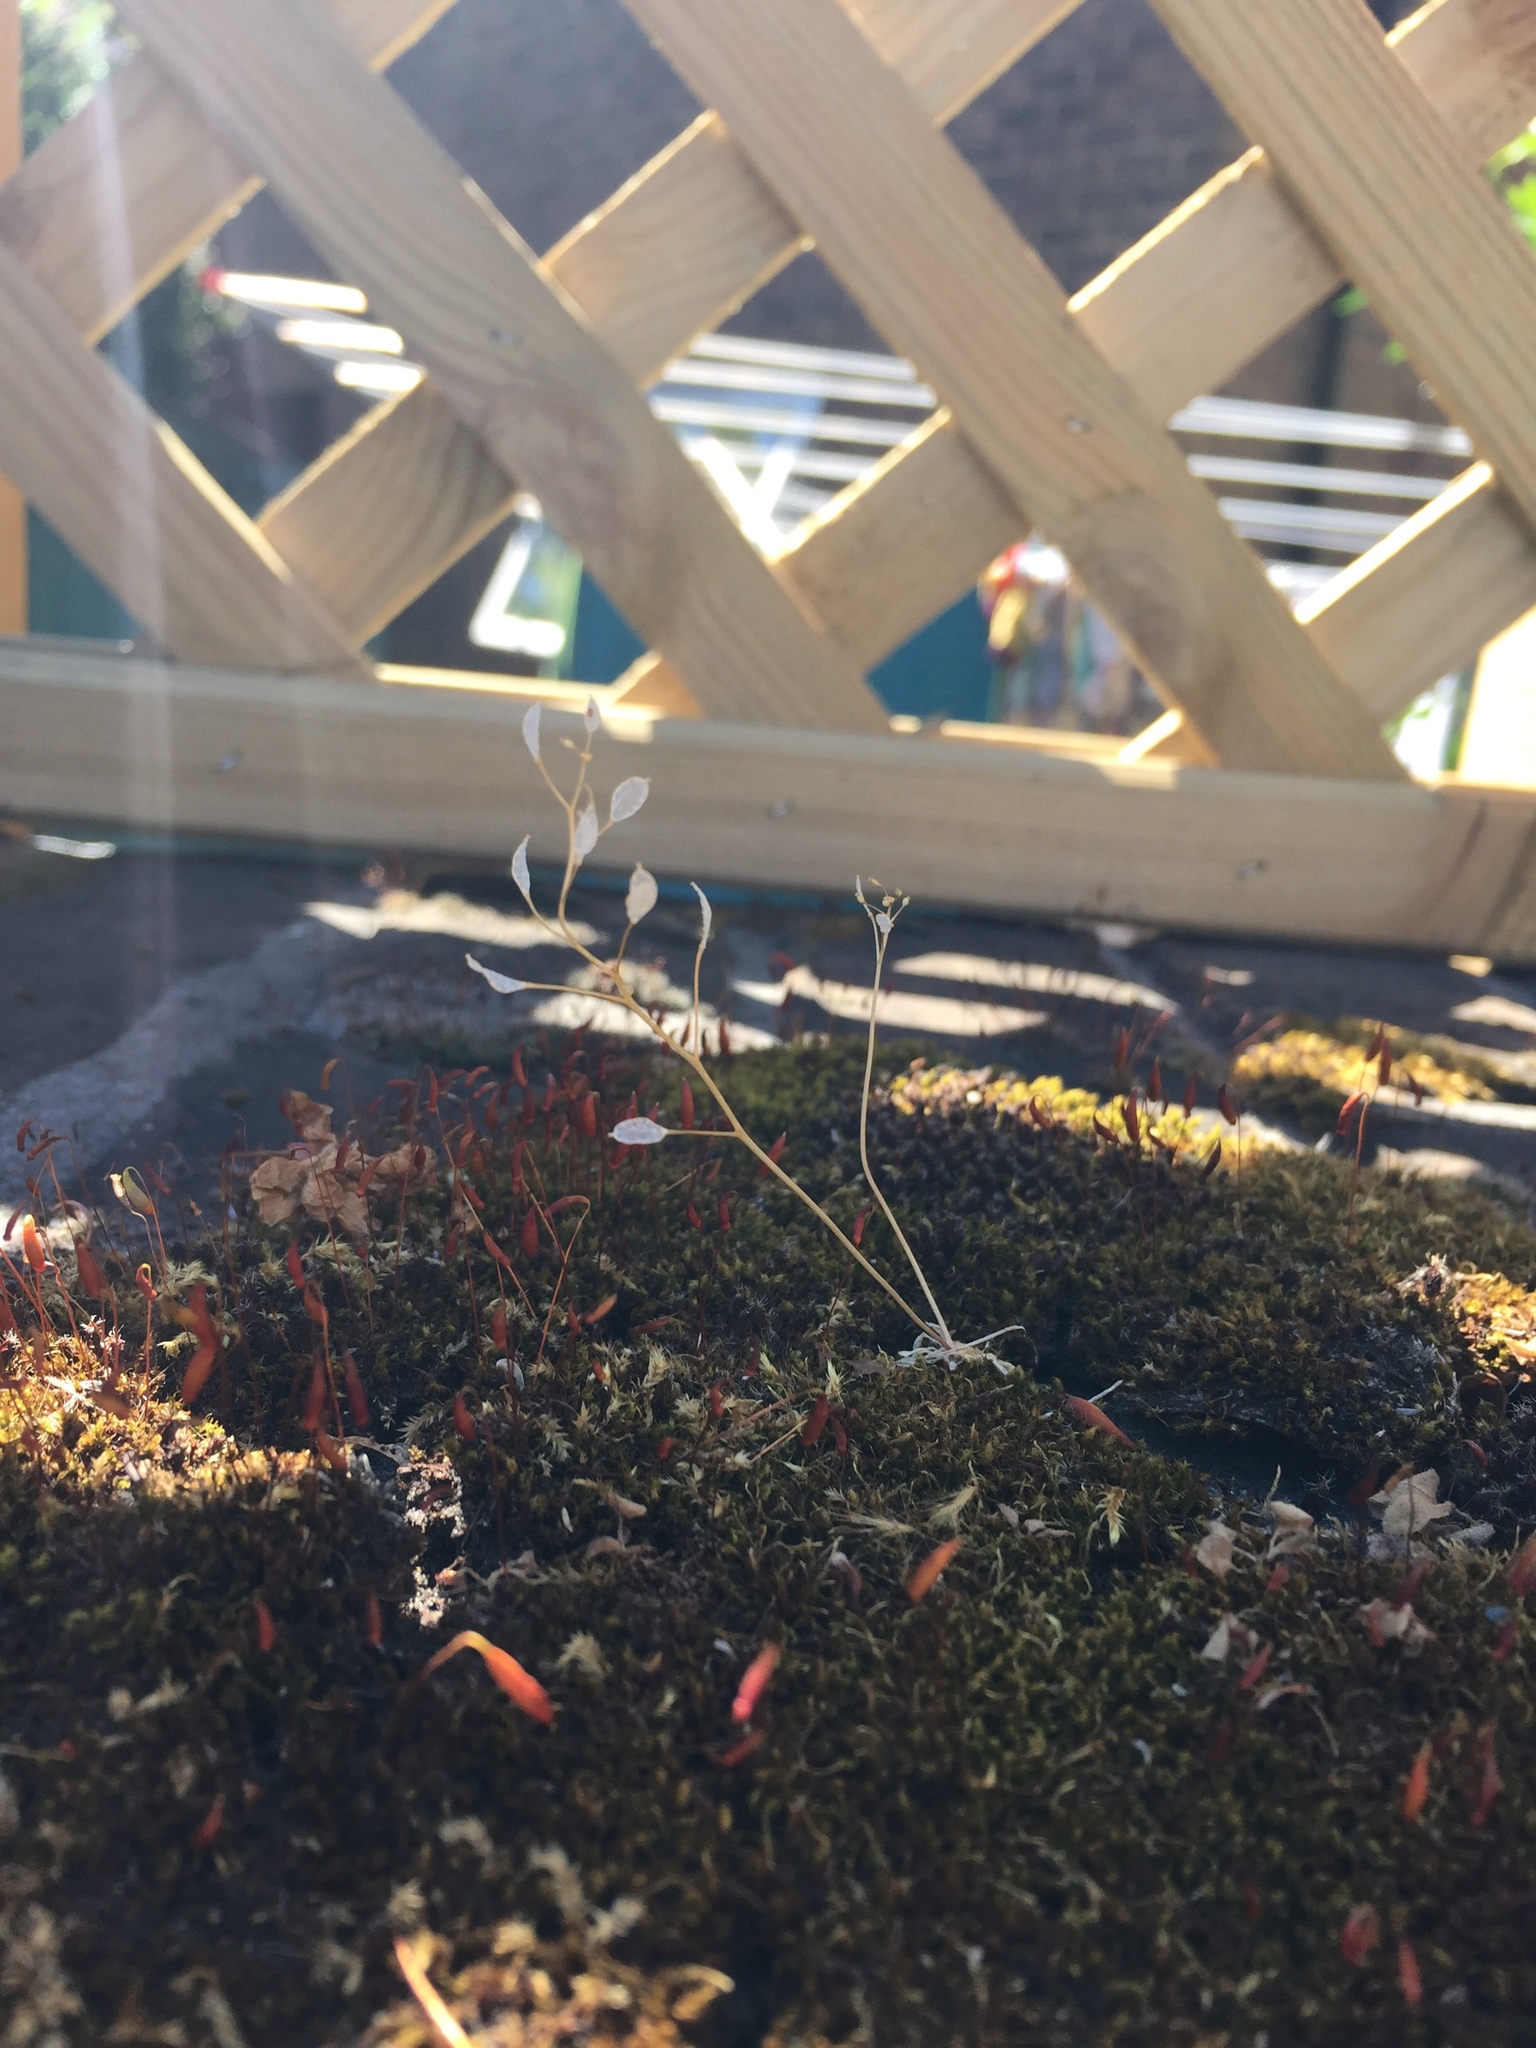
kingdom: Plantae
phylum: Tracheophyta
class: Magnoliopsida
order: Brassicales
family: Brassicaceae
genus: Draba
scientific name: Draba verna
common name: Spring draba
